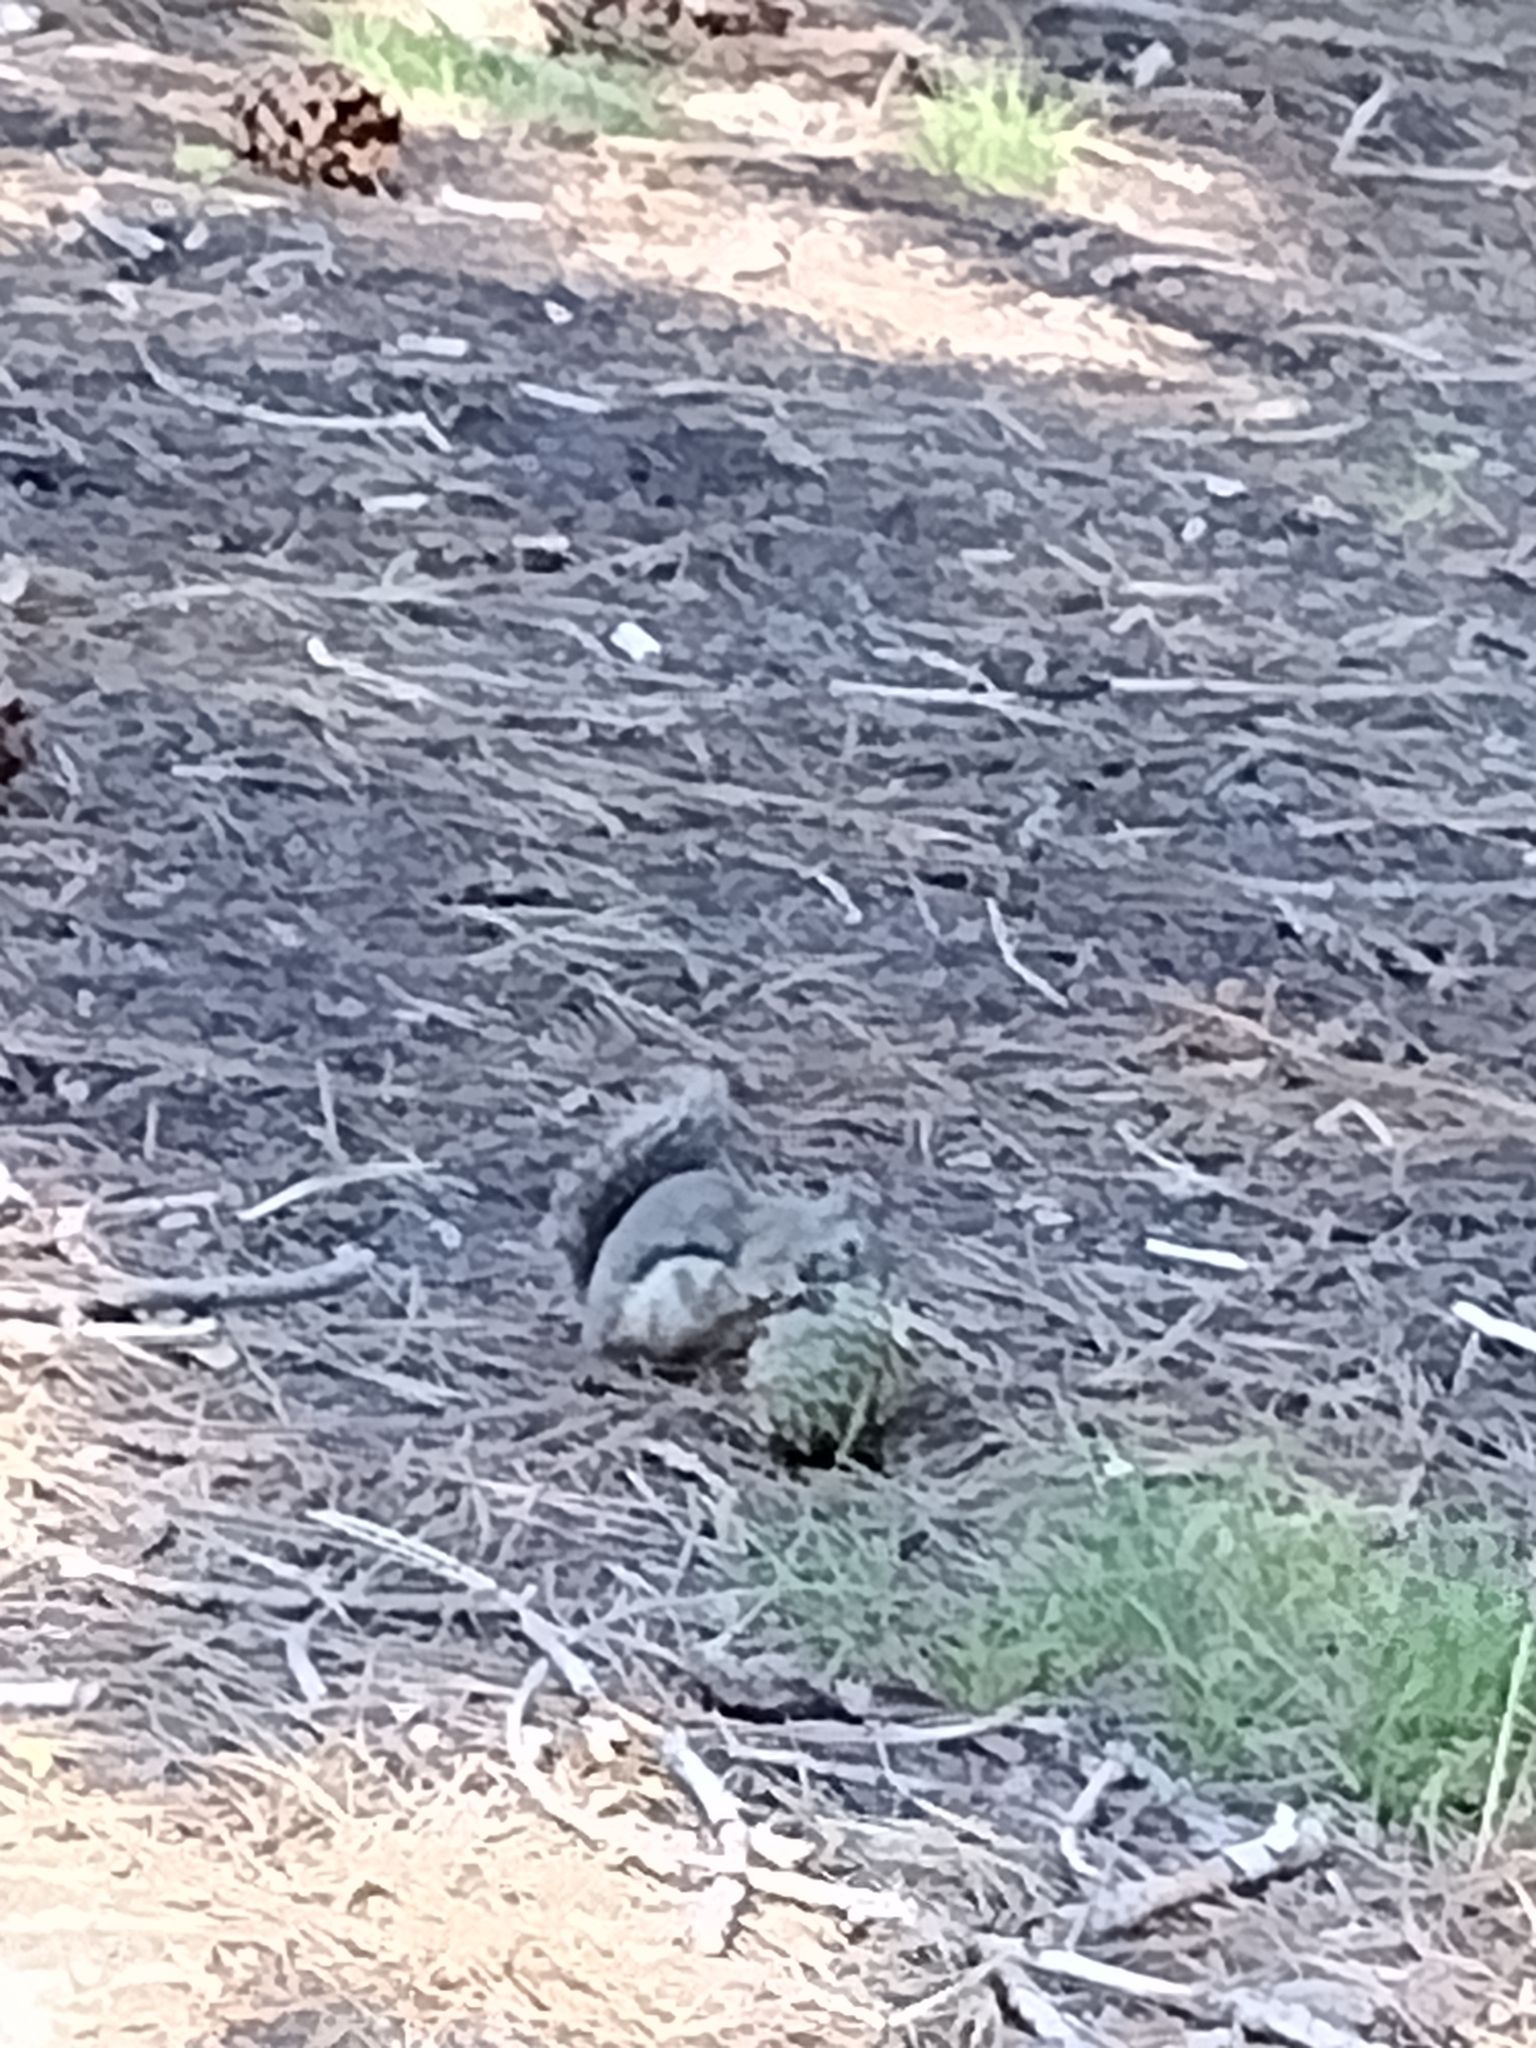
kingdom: Animalia
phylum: Chordata
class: Mammalia
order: Rodentia
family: Sciuridae
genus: Tamiasciurus
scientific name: Tamiasciurus douglasii
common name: Douglas's squirrel
